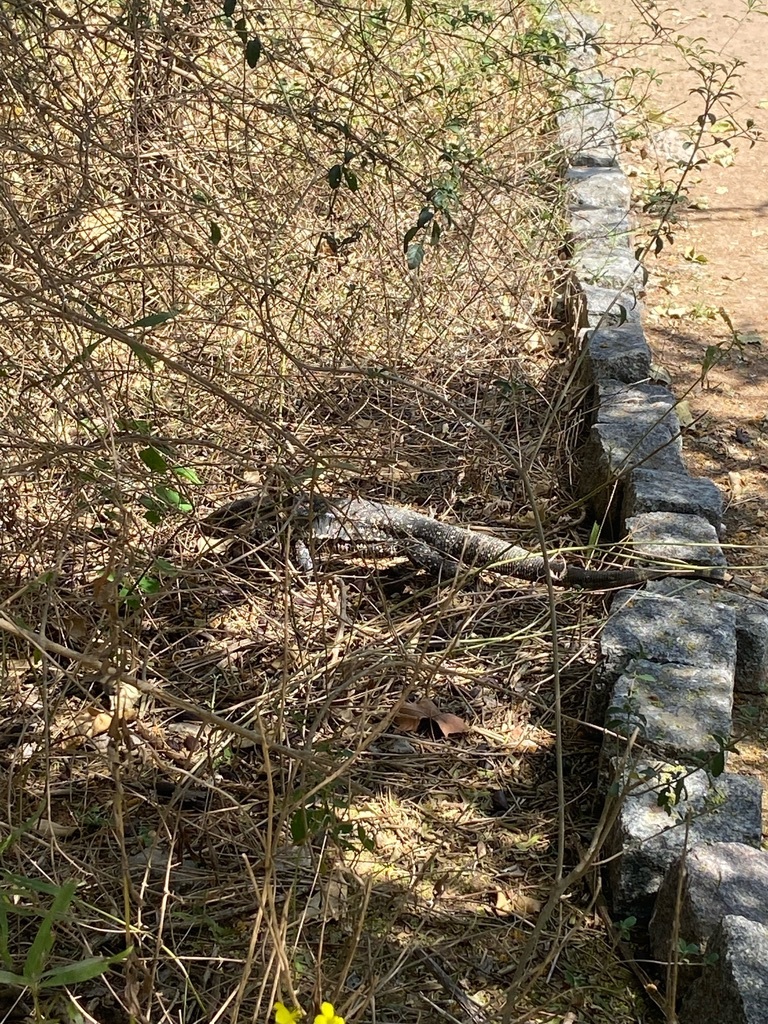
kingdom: Animalia
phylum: Chordata
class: Squamata
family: Teiidae
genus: Salvator
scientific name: Salvator merianae
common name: Argentine black and white tegu
